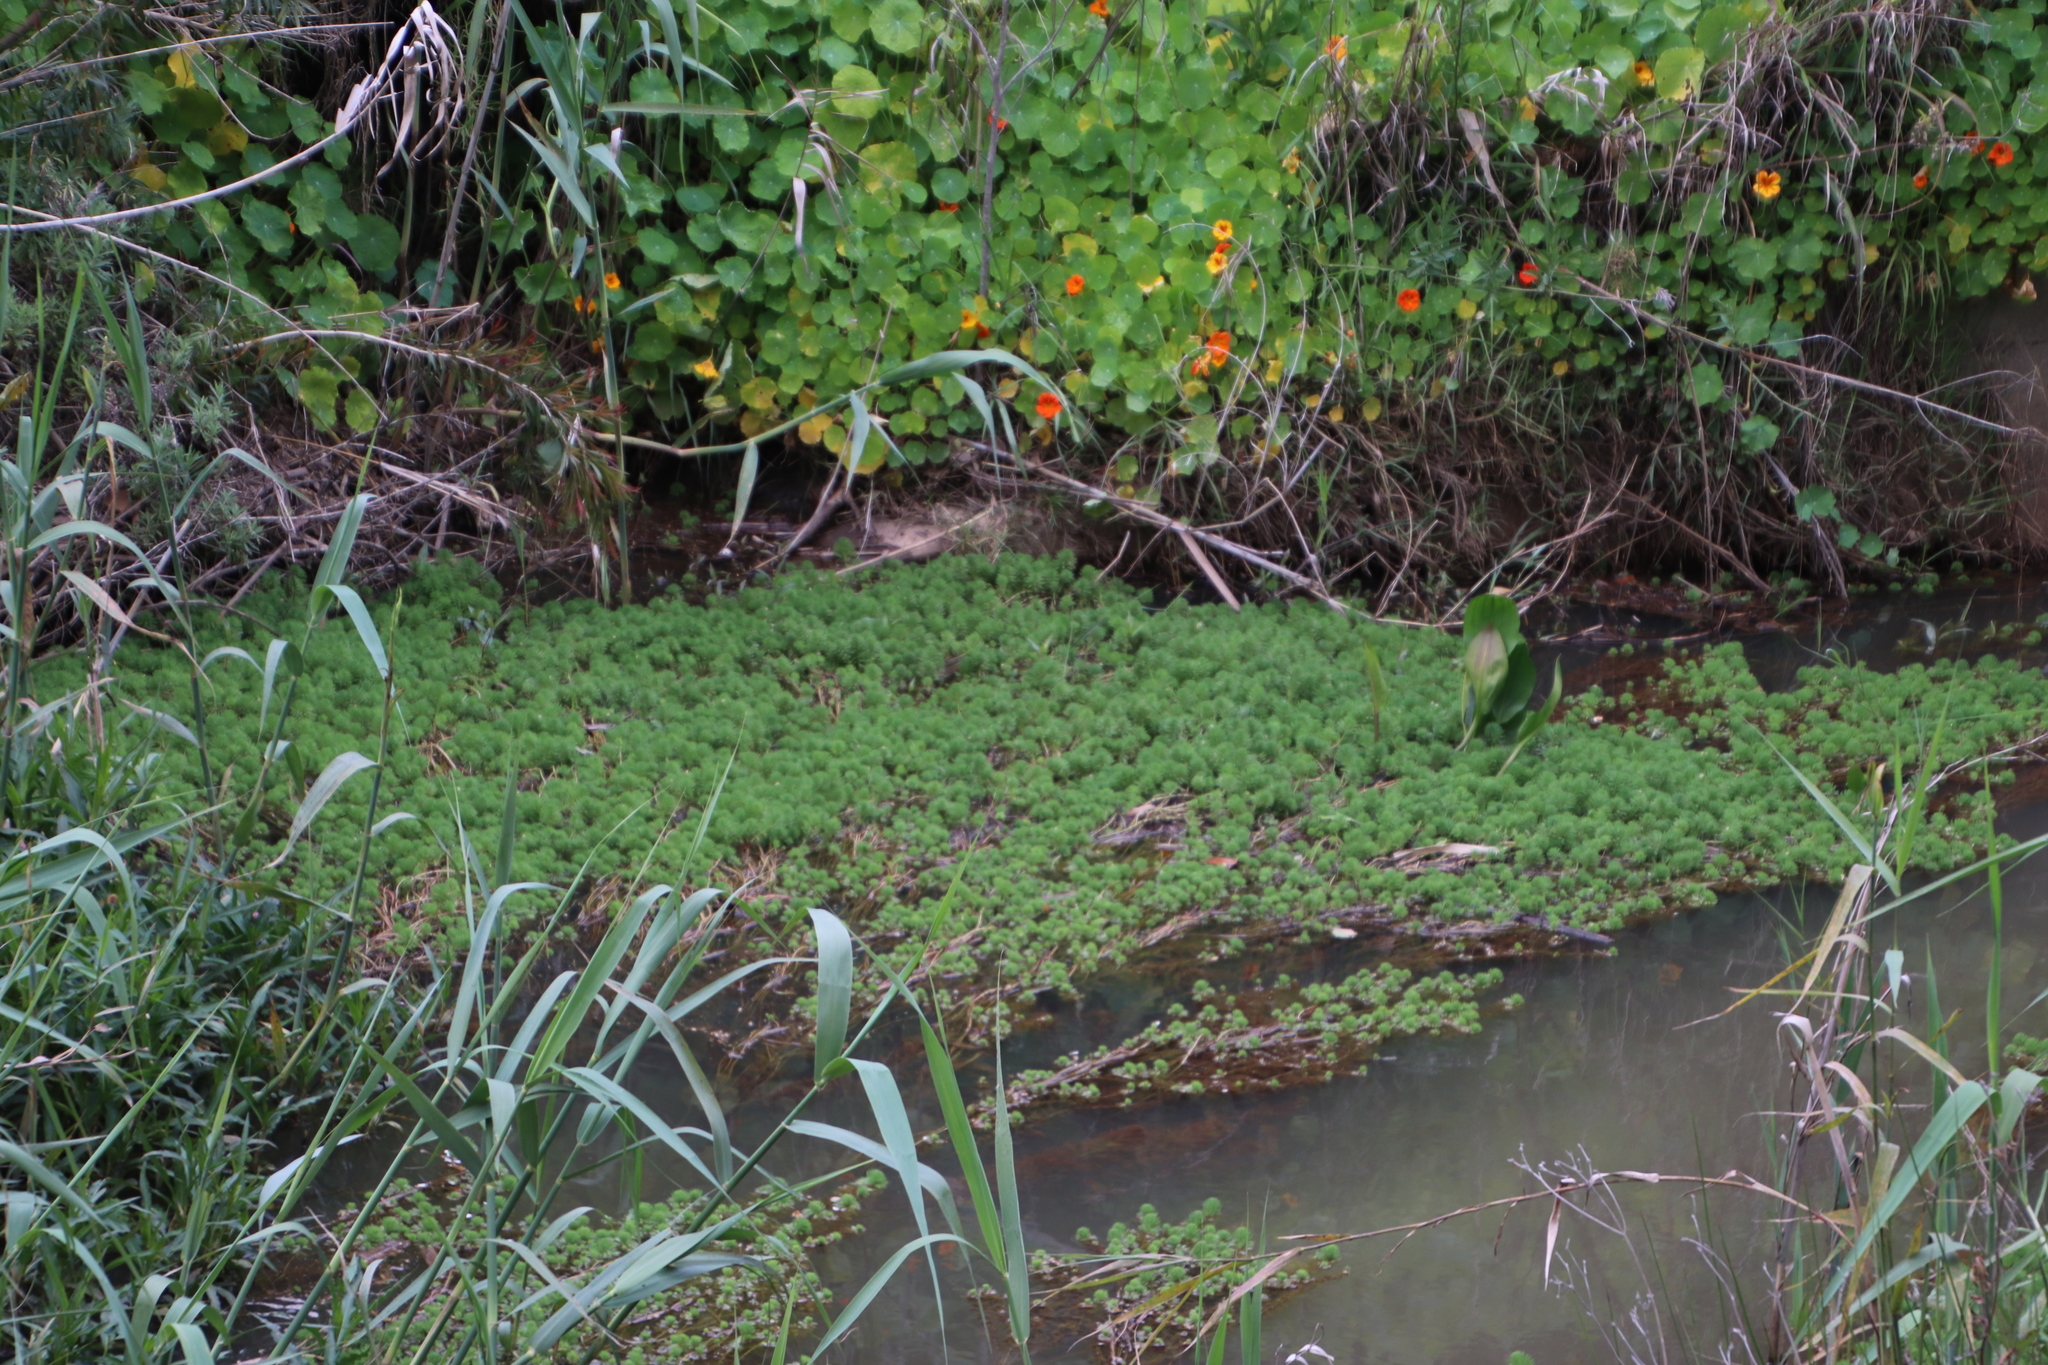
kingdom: Plantae
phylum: Tracheophyta
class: Magnoliopsida
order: Saxifragales
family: Haloragaceae
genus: Myriophyllum
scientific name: Myriophyllum aquaticum
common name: Parrot's feather
